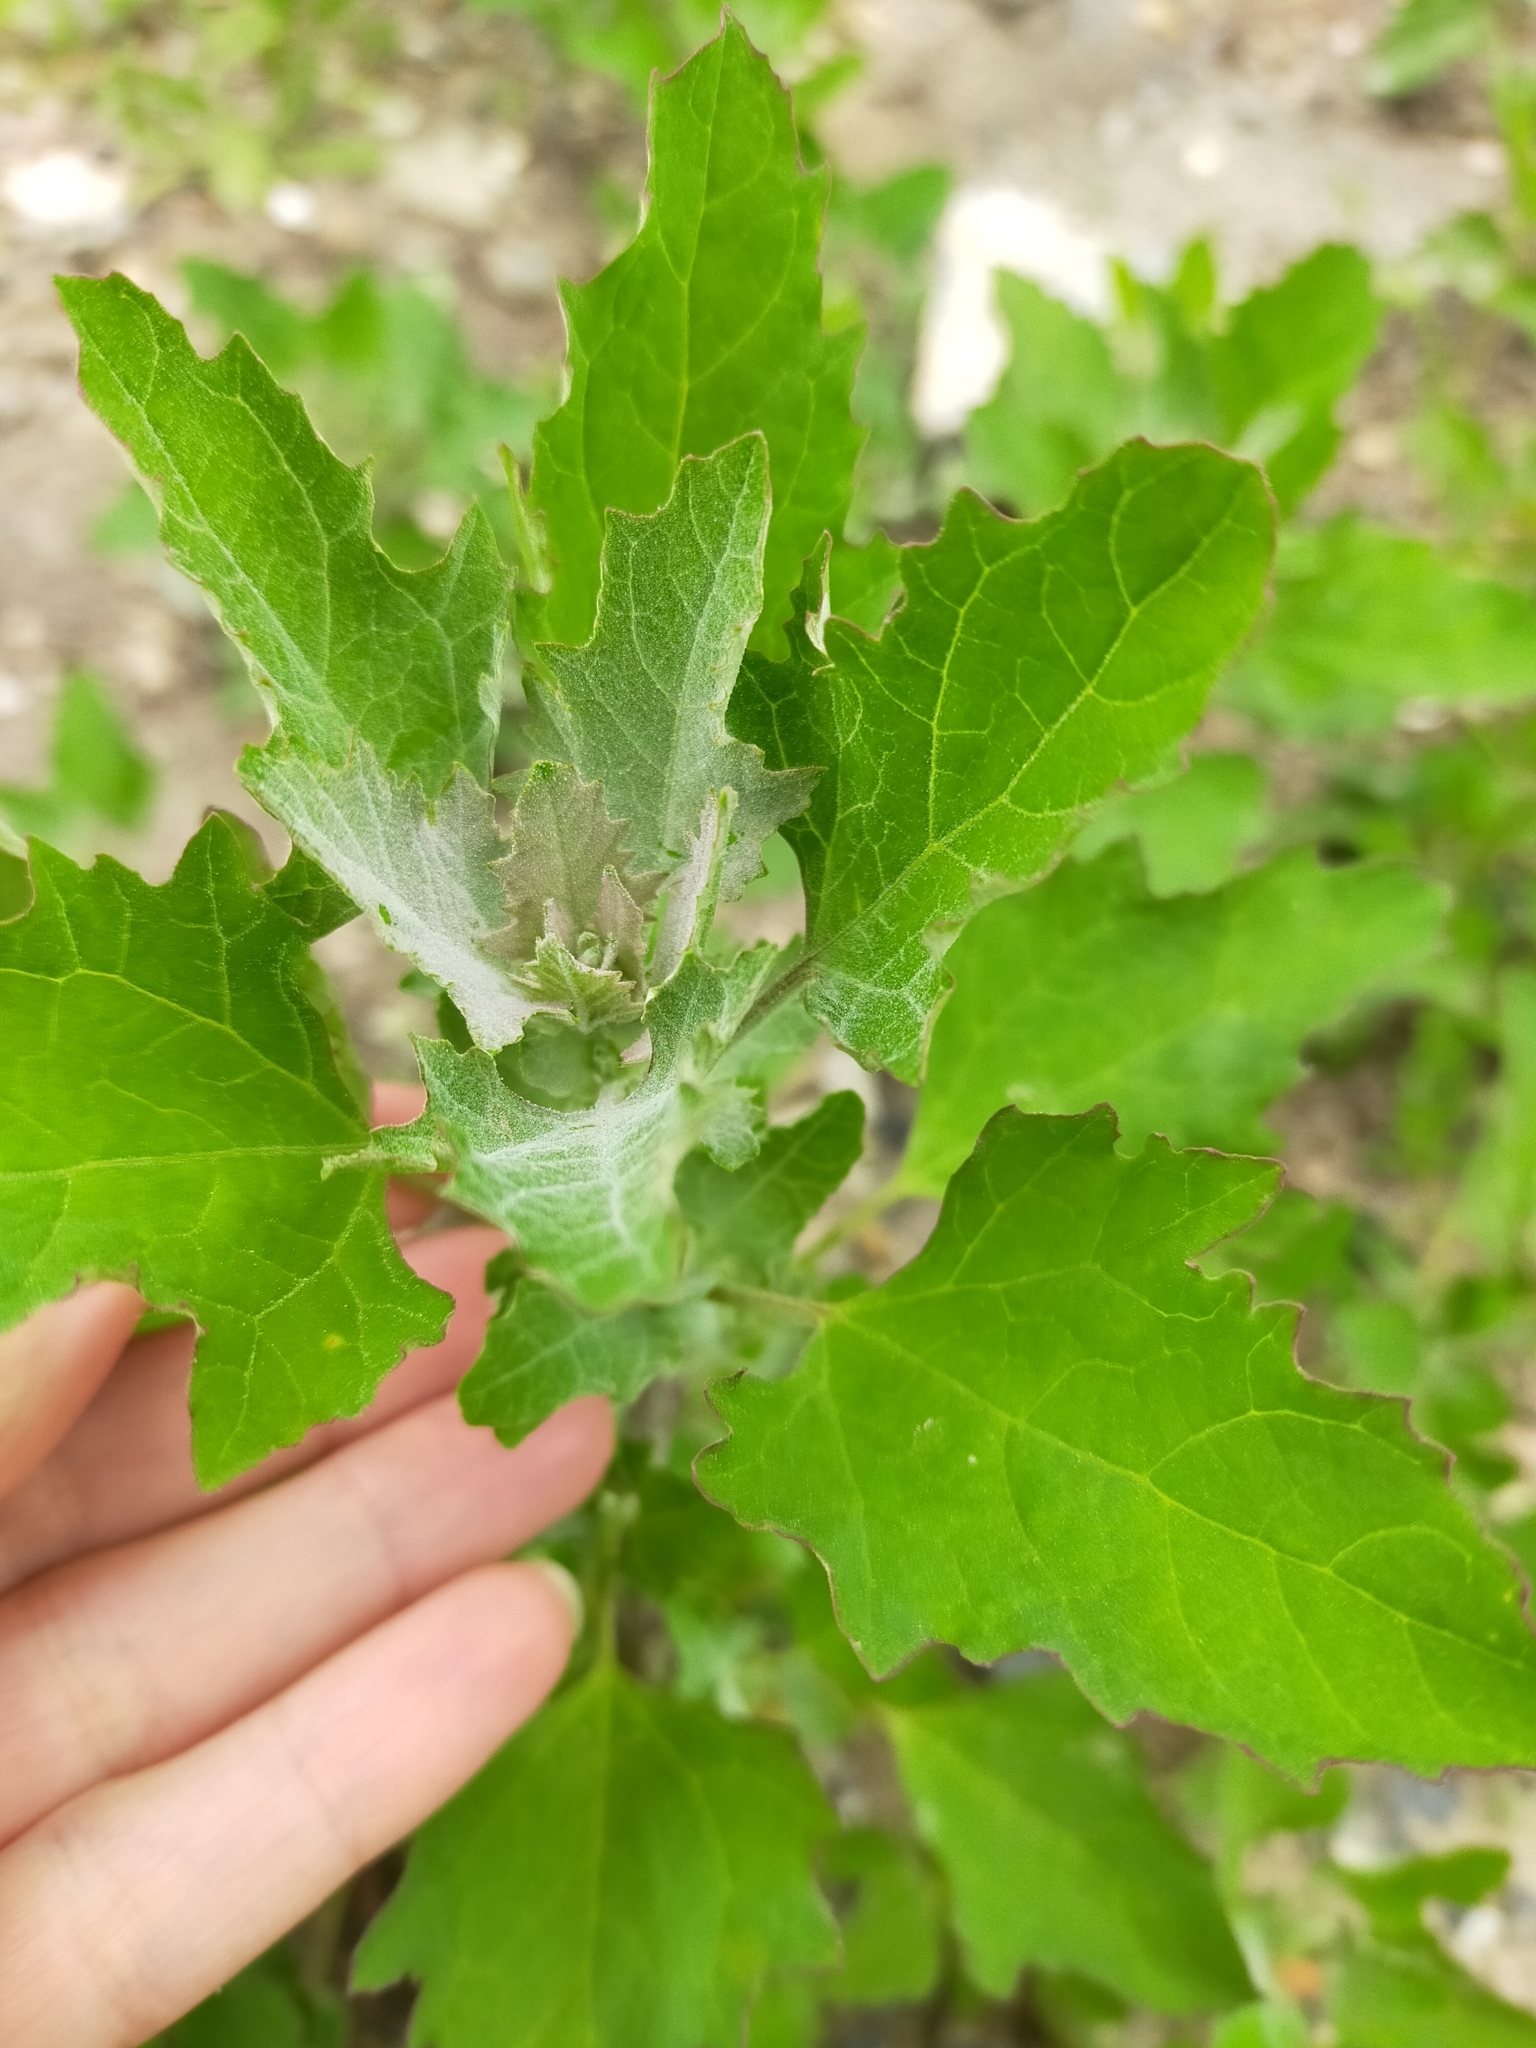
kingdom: Plantae
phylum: Tracheophyta
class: Magnoliopsida
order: Caryophyllales
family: Amaranthaceae
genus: Chenopodium
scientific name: Chenopodium album
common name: Fat-hen
